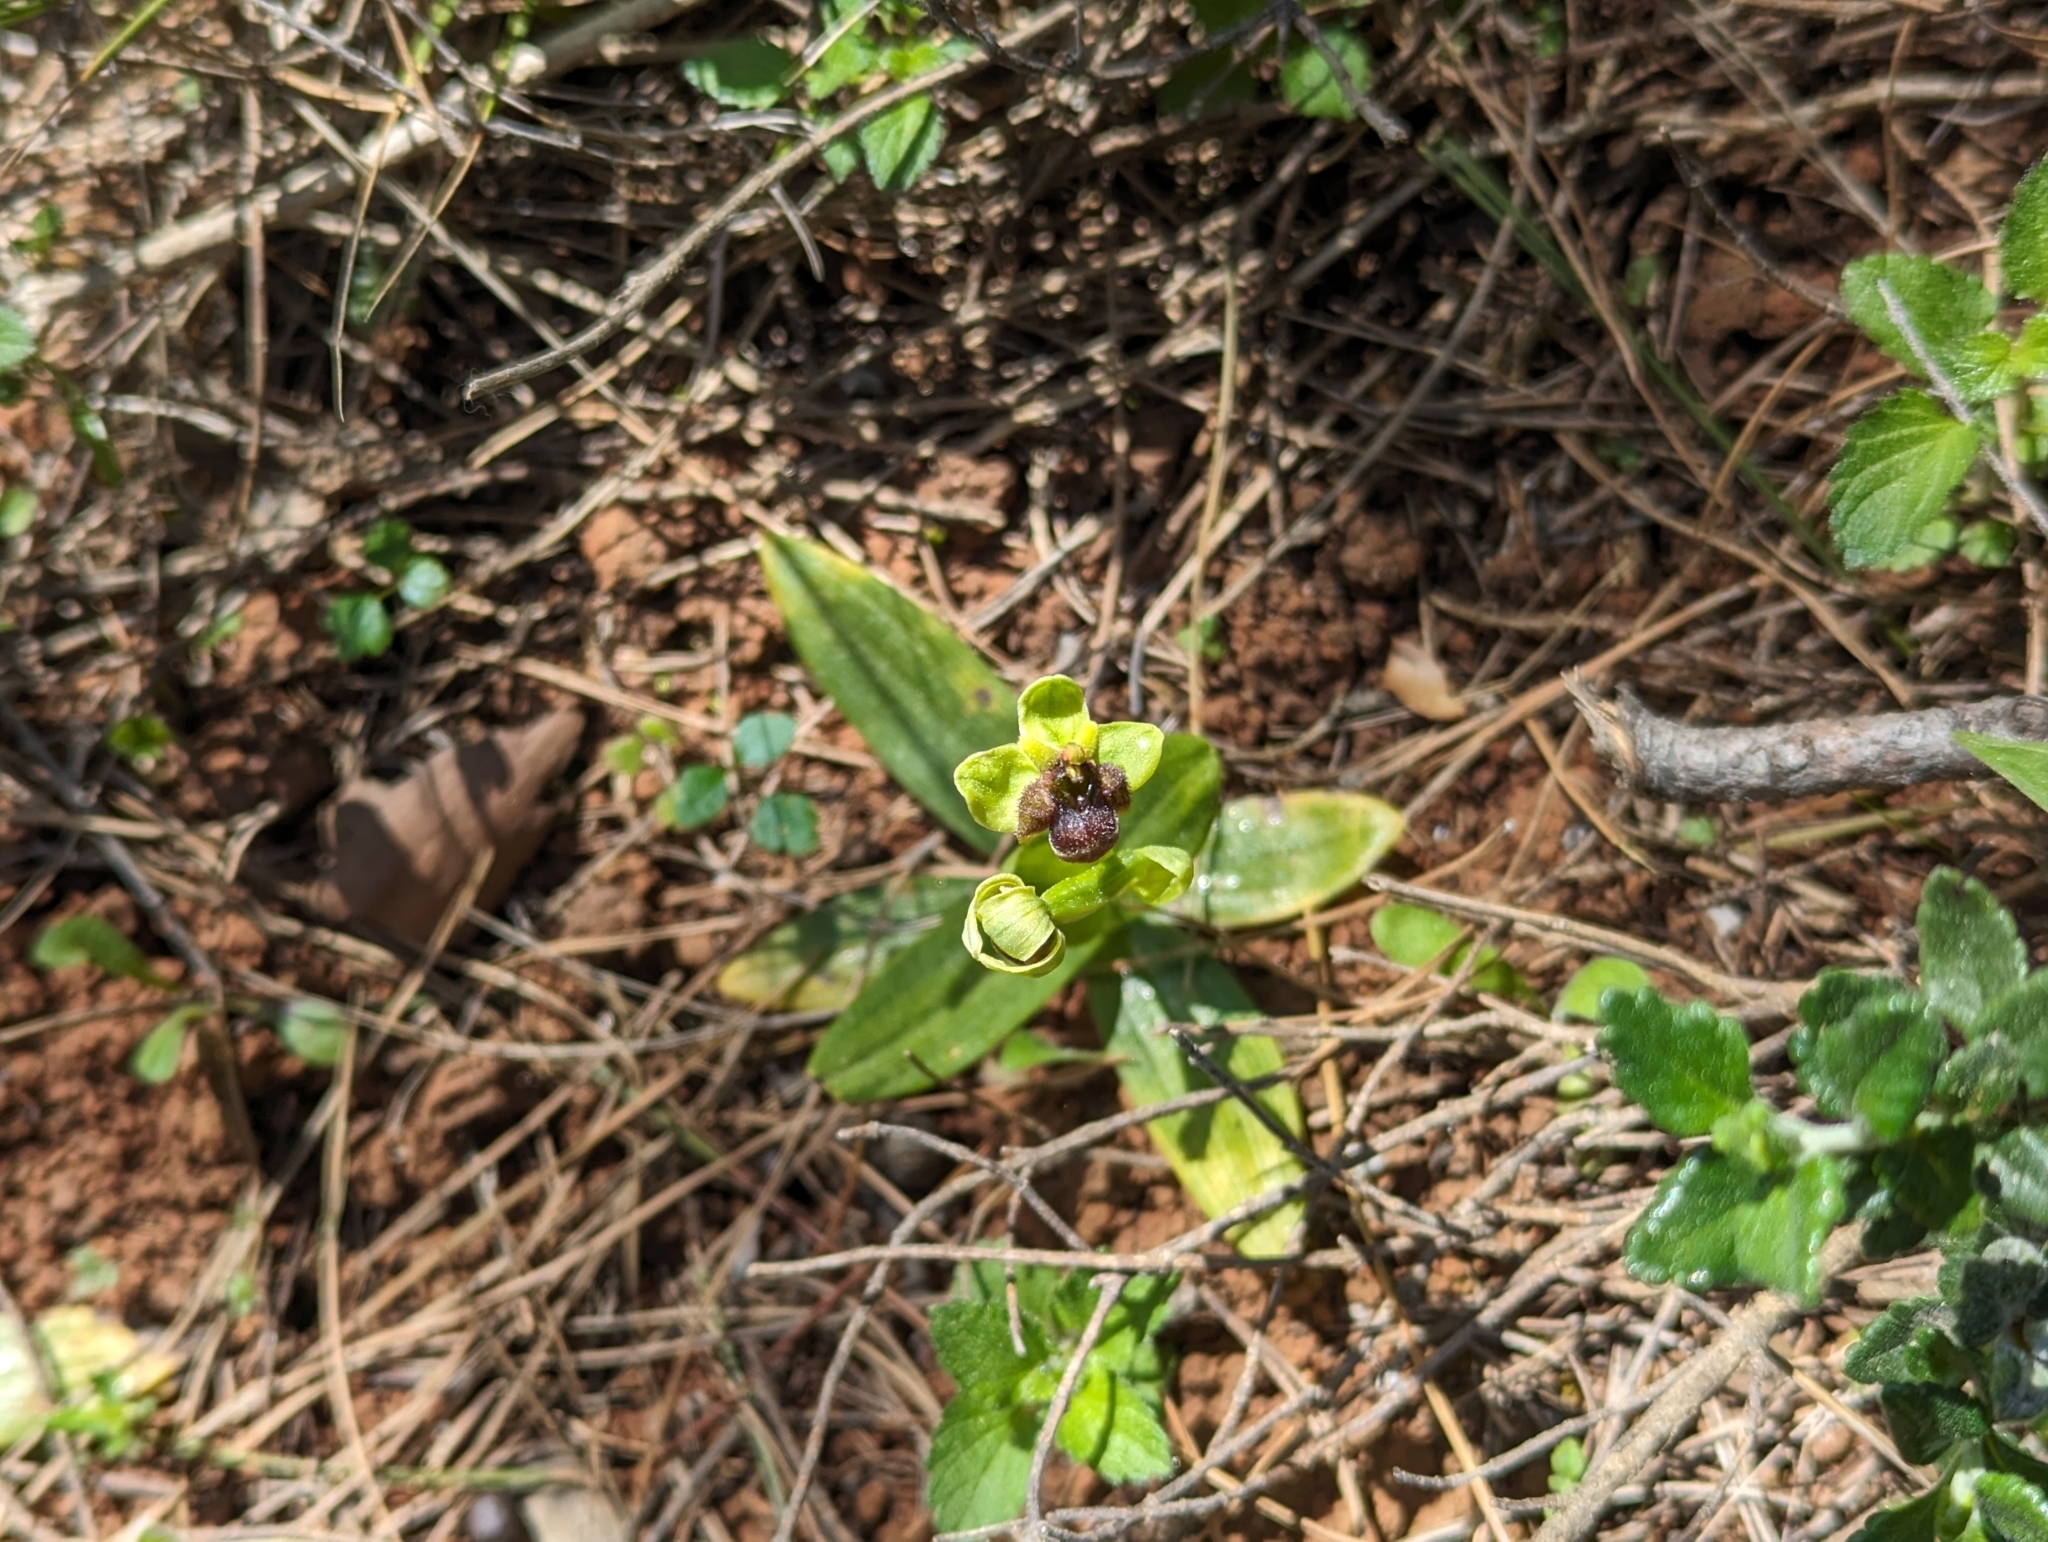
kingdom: Plantae
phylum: Tracheophyta
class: Liliopsida
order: Asparagales
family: Orchidaceae
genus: Ophrys
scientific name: Ophrys bombyliflora
